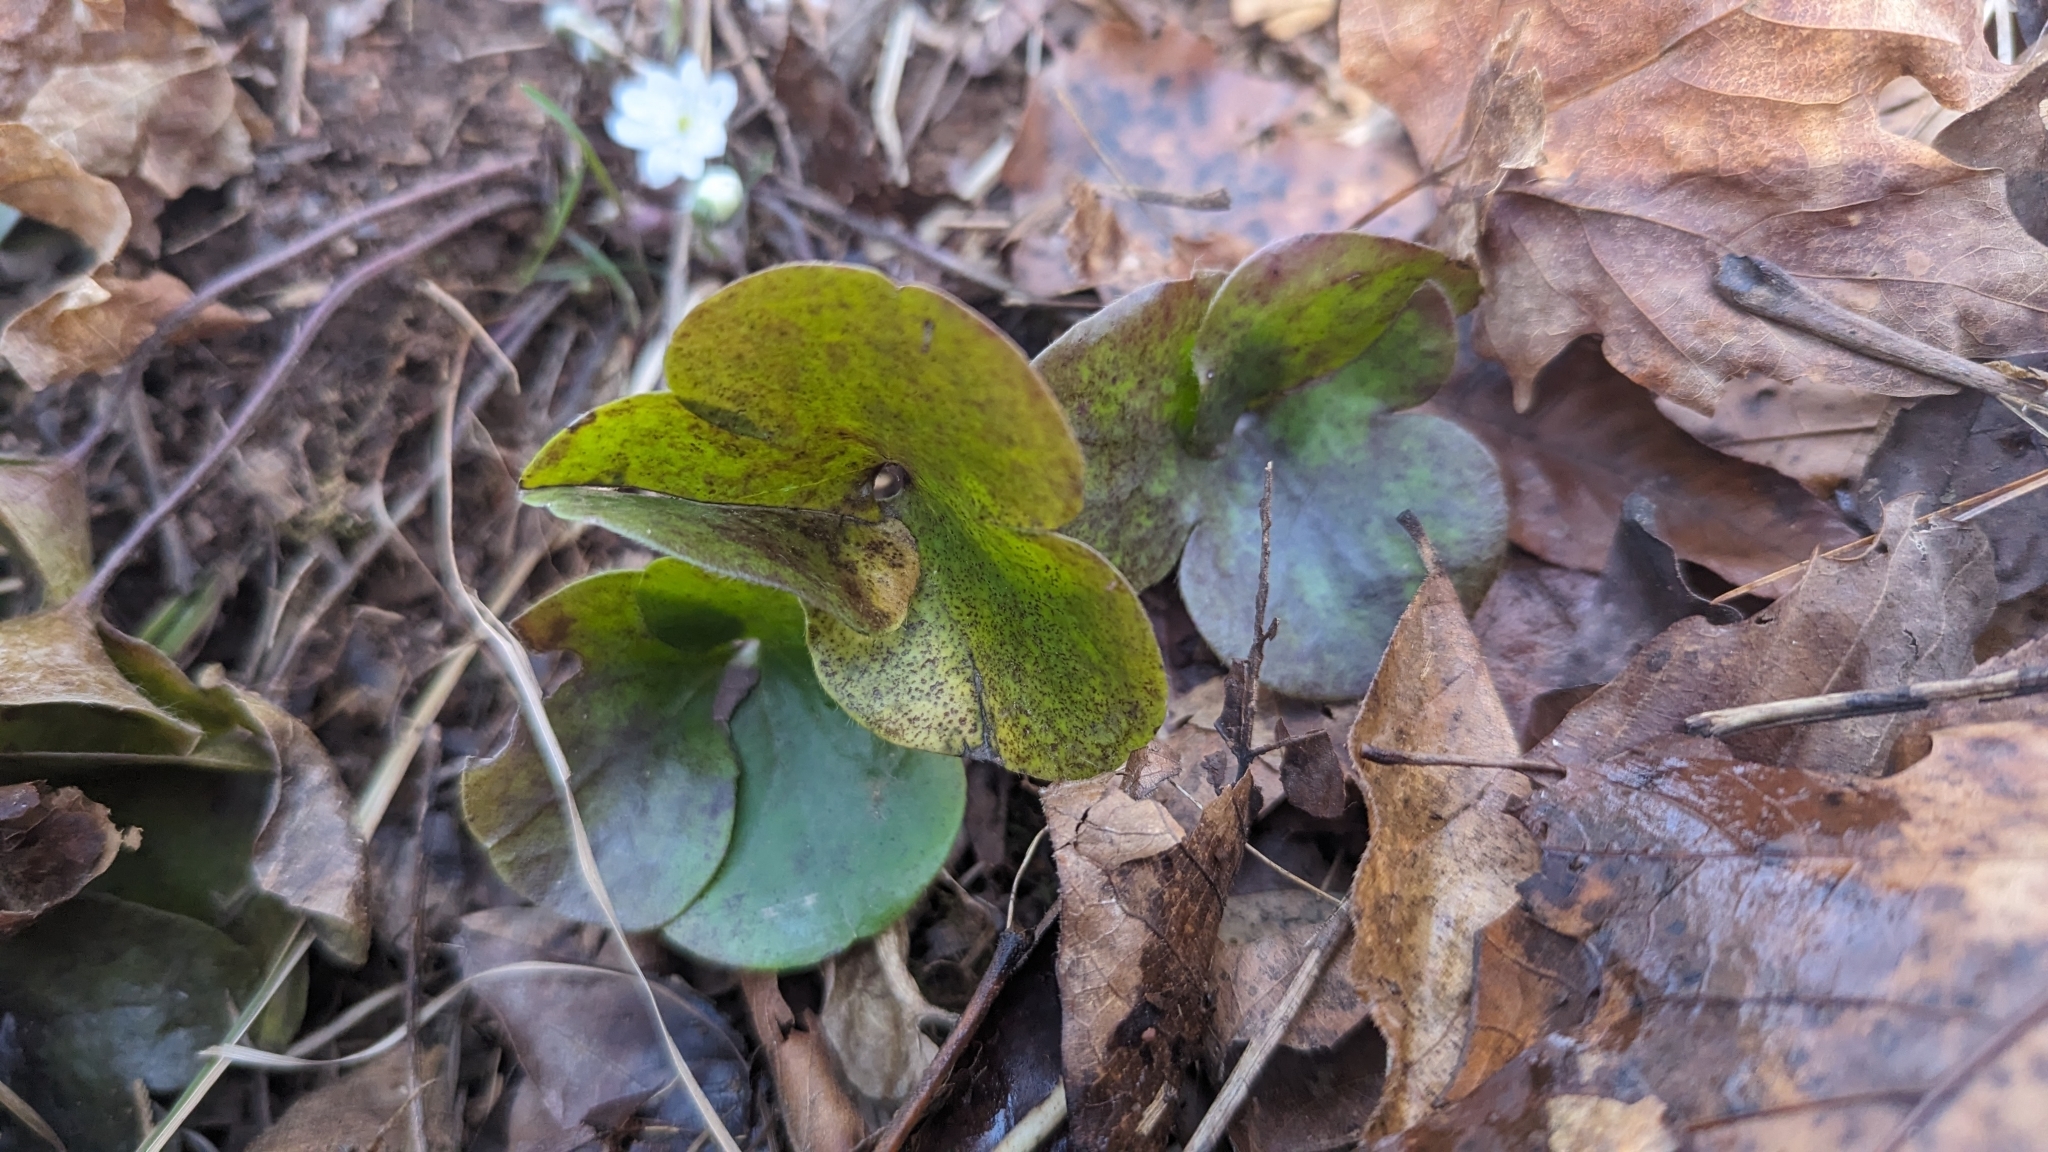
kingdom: Plantae
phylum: Tracheophyta
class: Magnoliopsida
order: Ranunculales
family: Ranunculaceae
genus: Hepatica
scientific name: Hepatica americana
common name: American hepatica
